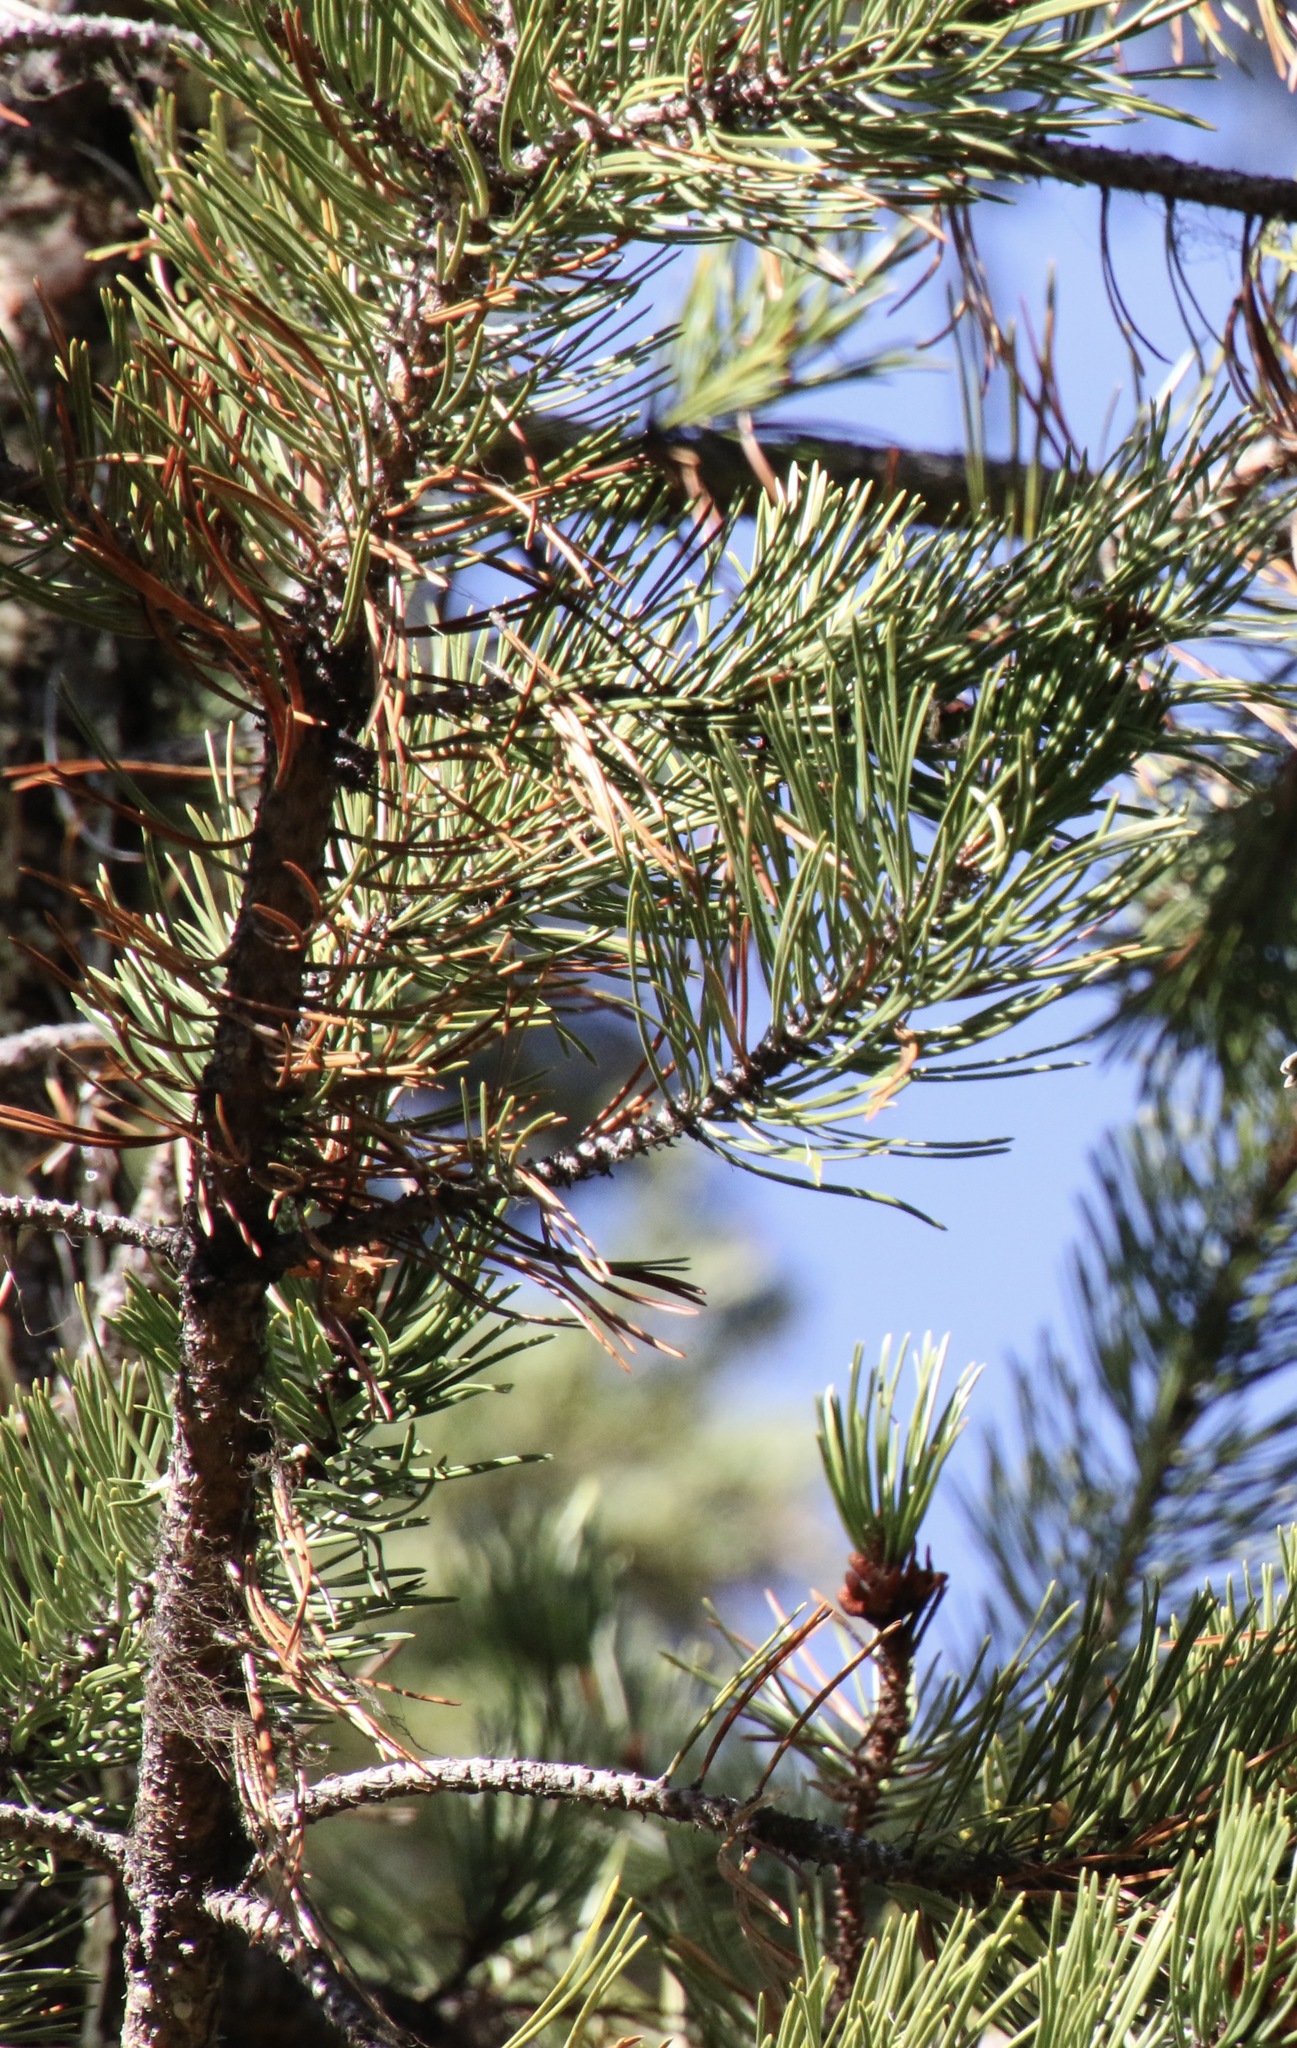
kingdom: Plantae
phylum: Tracheophyta
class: Pinopsida
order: Pinales
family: Pinaceae
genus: Pinus
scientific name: Pinus contorta
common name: Lodgepole pine
